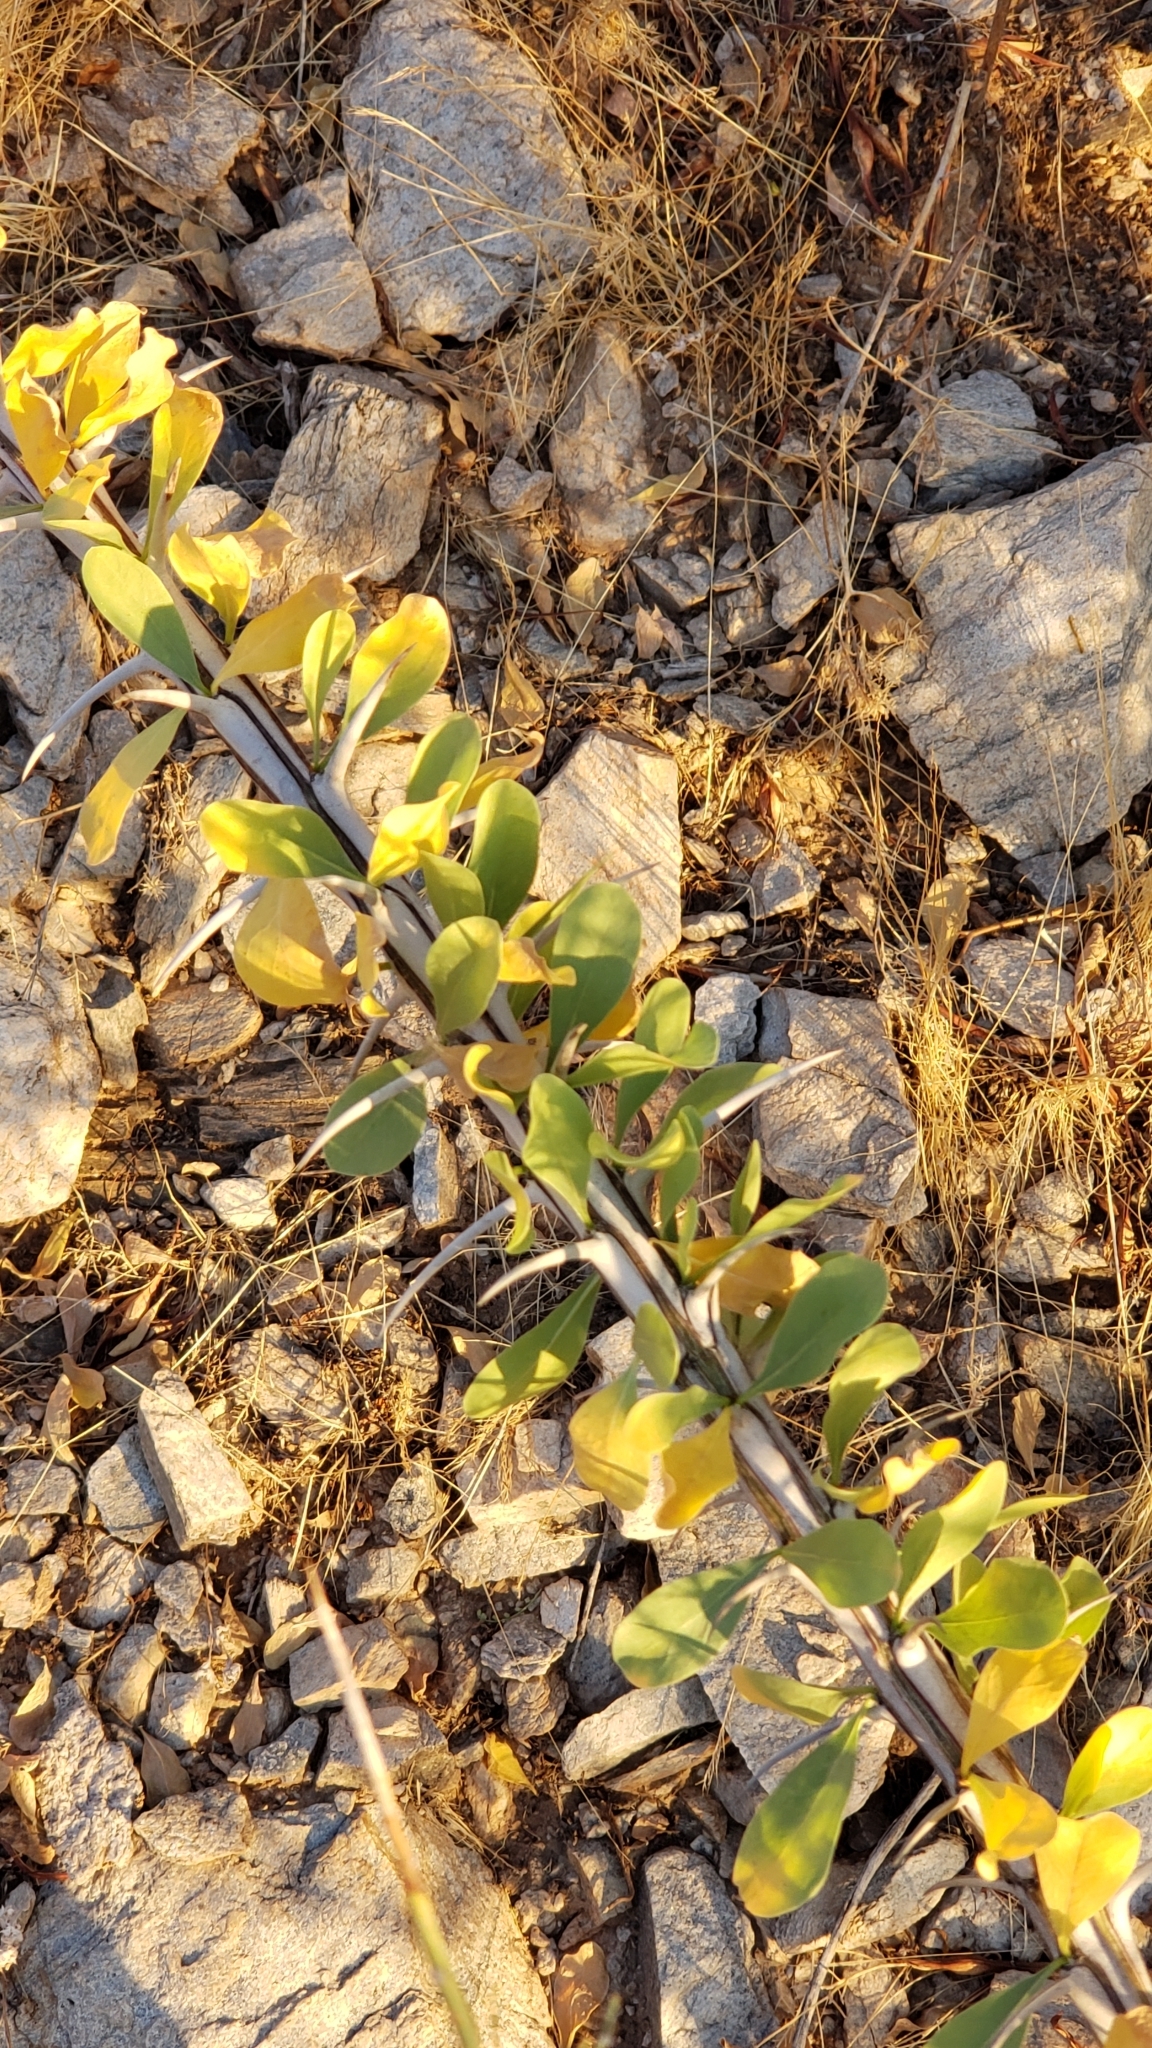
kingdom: Plantae
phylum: Tracheophyta
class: Magnoliopsida
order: Ericales
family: Fouquieriaceae
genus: Fouquieria
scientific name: Fouquieria splendens
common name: Vine-cactus
